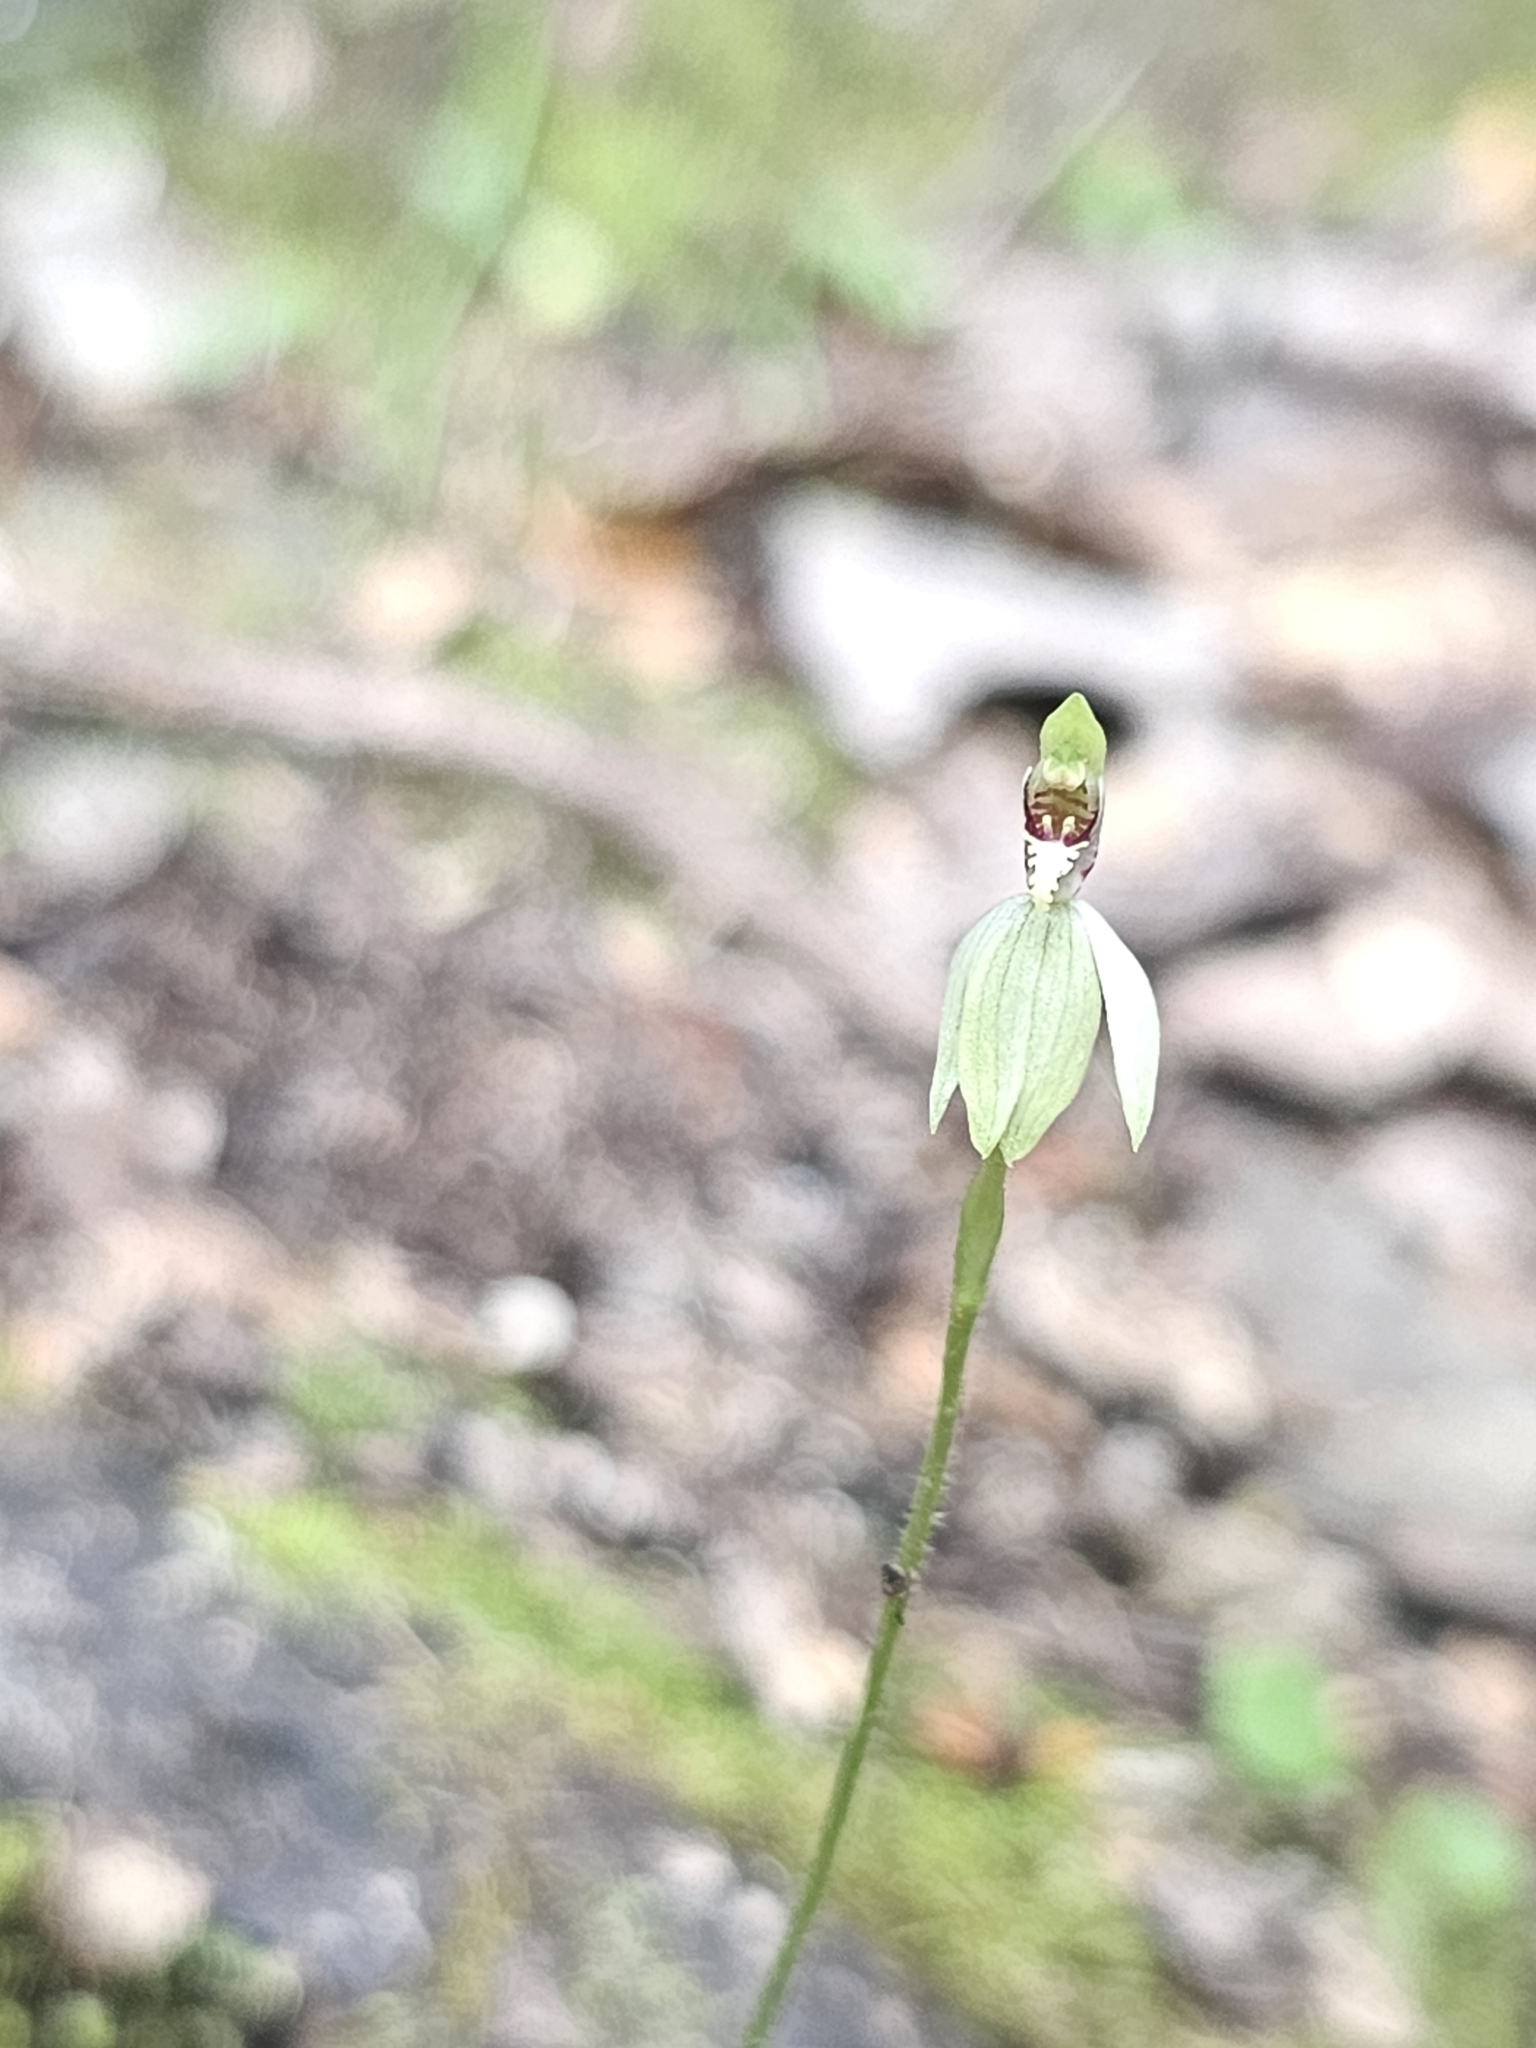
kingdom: Plantae
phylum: Tracheophyta
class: Liliopsida
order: Asparagales
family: Orchidaceae
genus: Caladenia
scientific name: Caladenia chlorostyla
